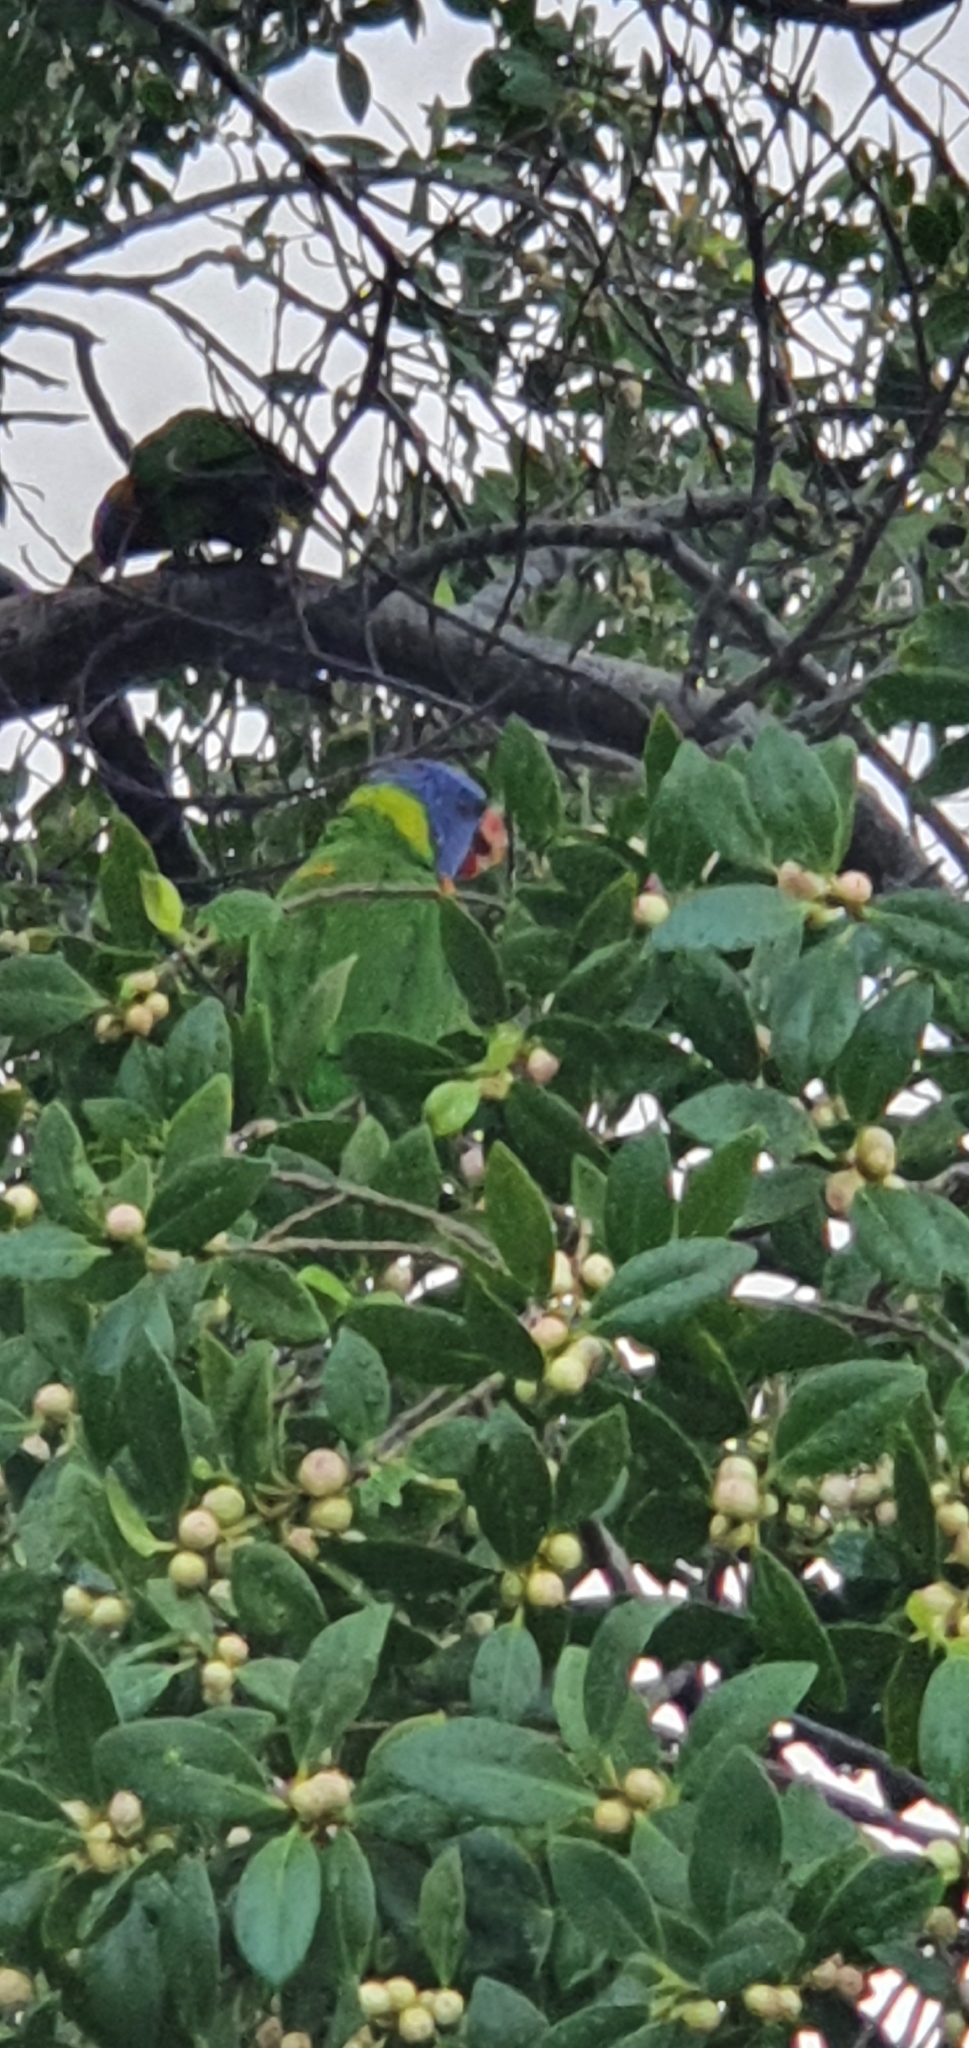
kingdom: Animalia
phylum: Chordata
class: Aves
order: Psittaciformes
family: Psittacidae
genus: Trichoglossus
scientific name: Trichoglossus haematodus
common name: Coconut lorikeet
